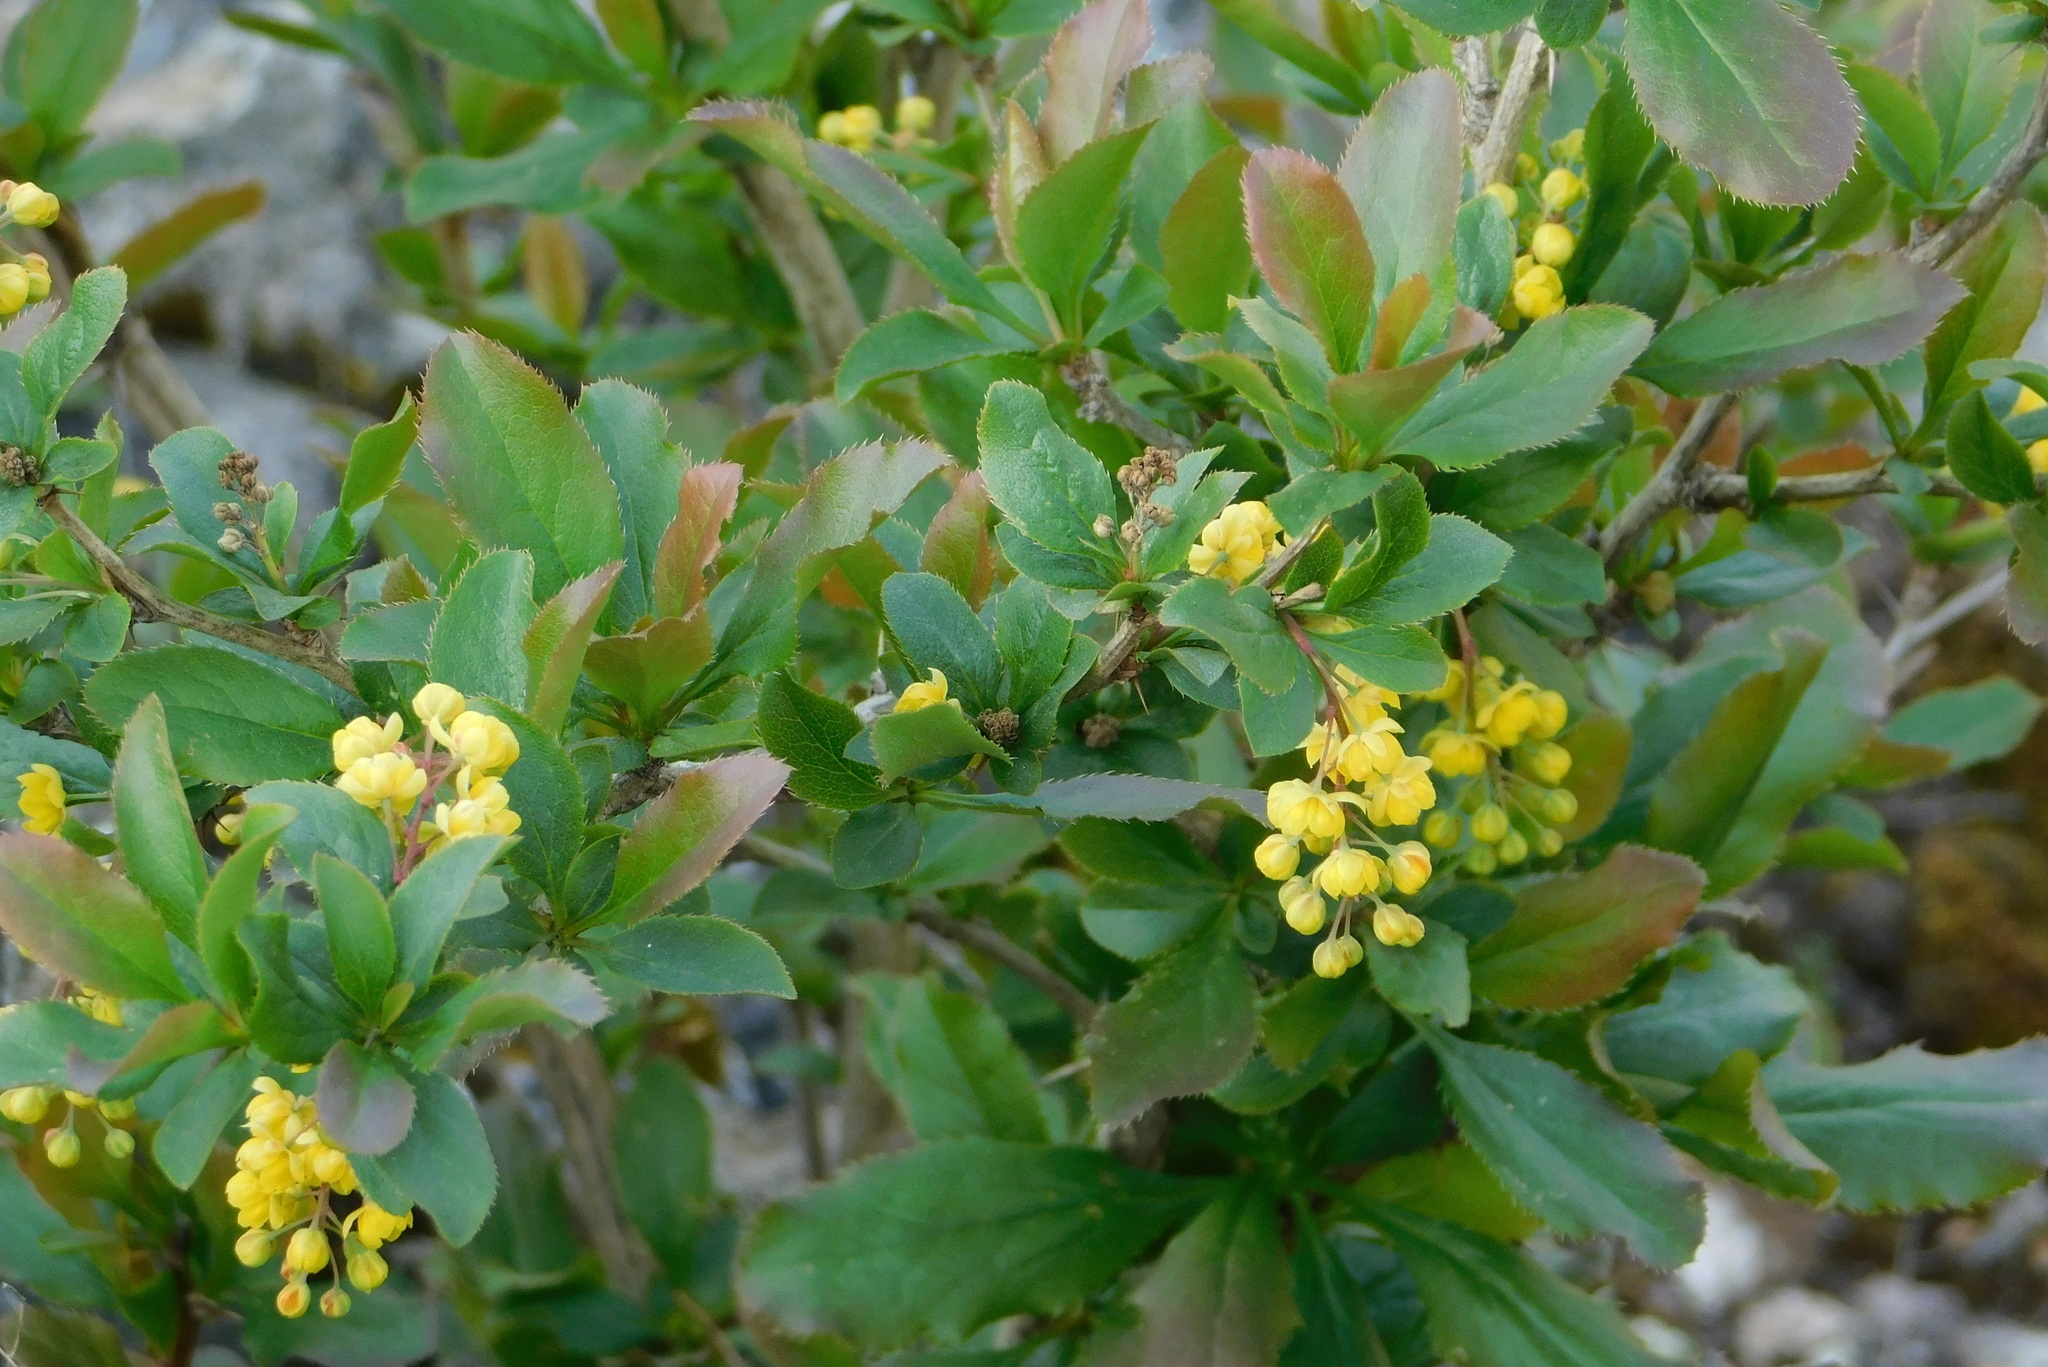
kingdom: Plantae
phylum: Tracheophyta
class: Magnoliopsida
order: Ranunculales
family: Berberidaceae
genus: Berberis
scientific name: Berberis vulgaris
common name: Barberry
